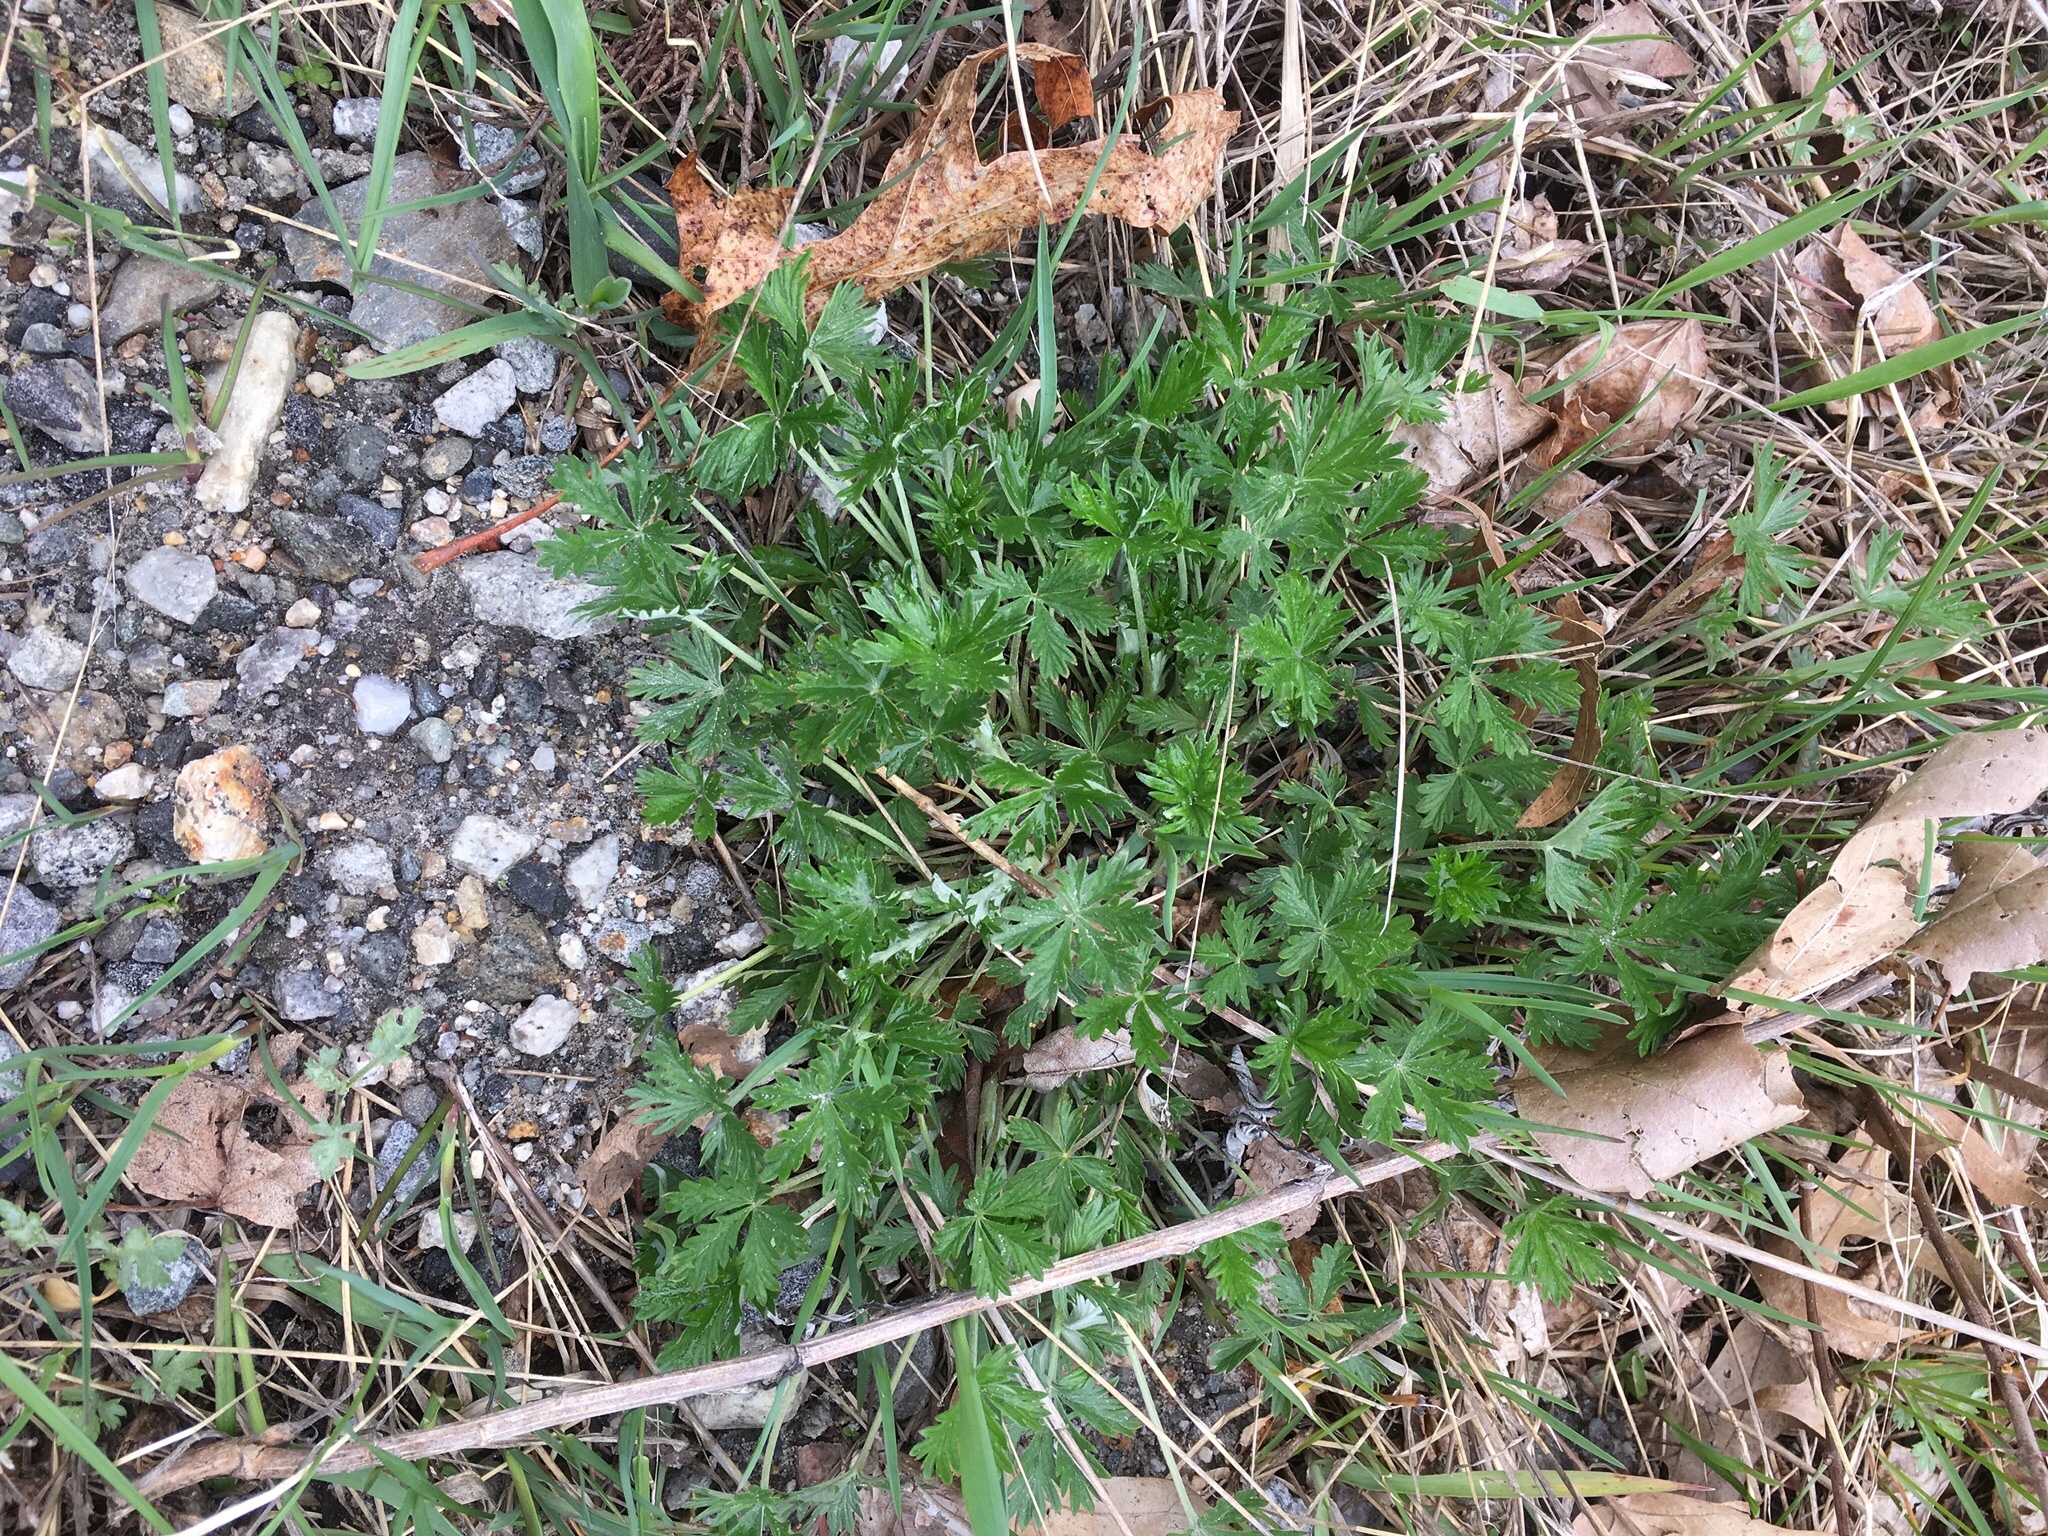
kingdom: Plantae
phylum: Tracheophyta
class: Magnoliopsida
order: Rosales
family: Rosaceae
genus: Potentilla
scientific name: Potentilla argentea
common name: Hoary cinquefoil
